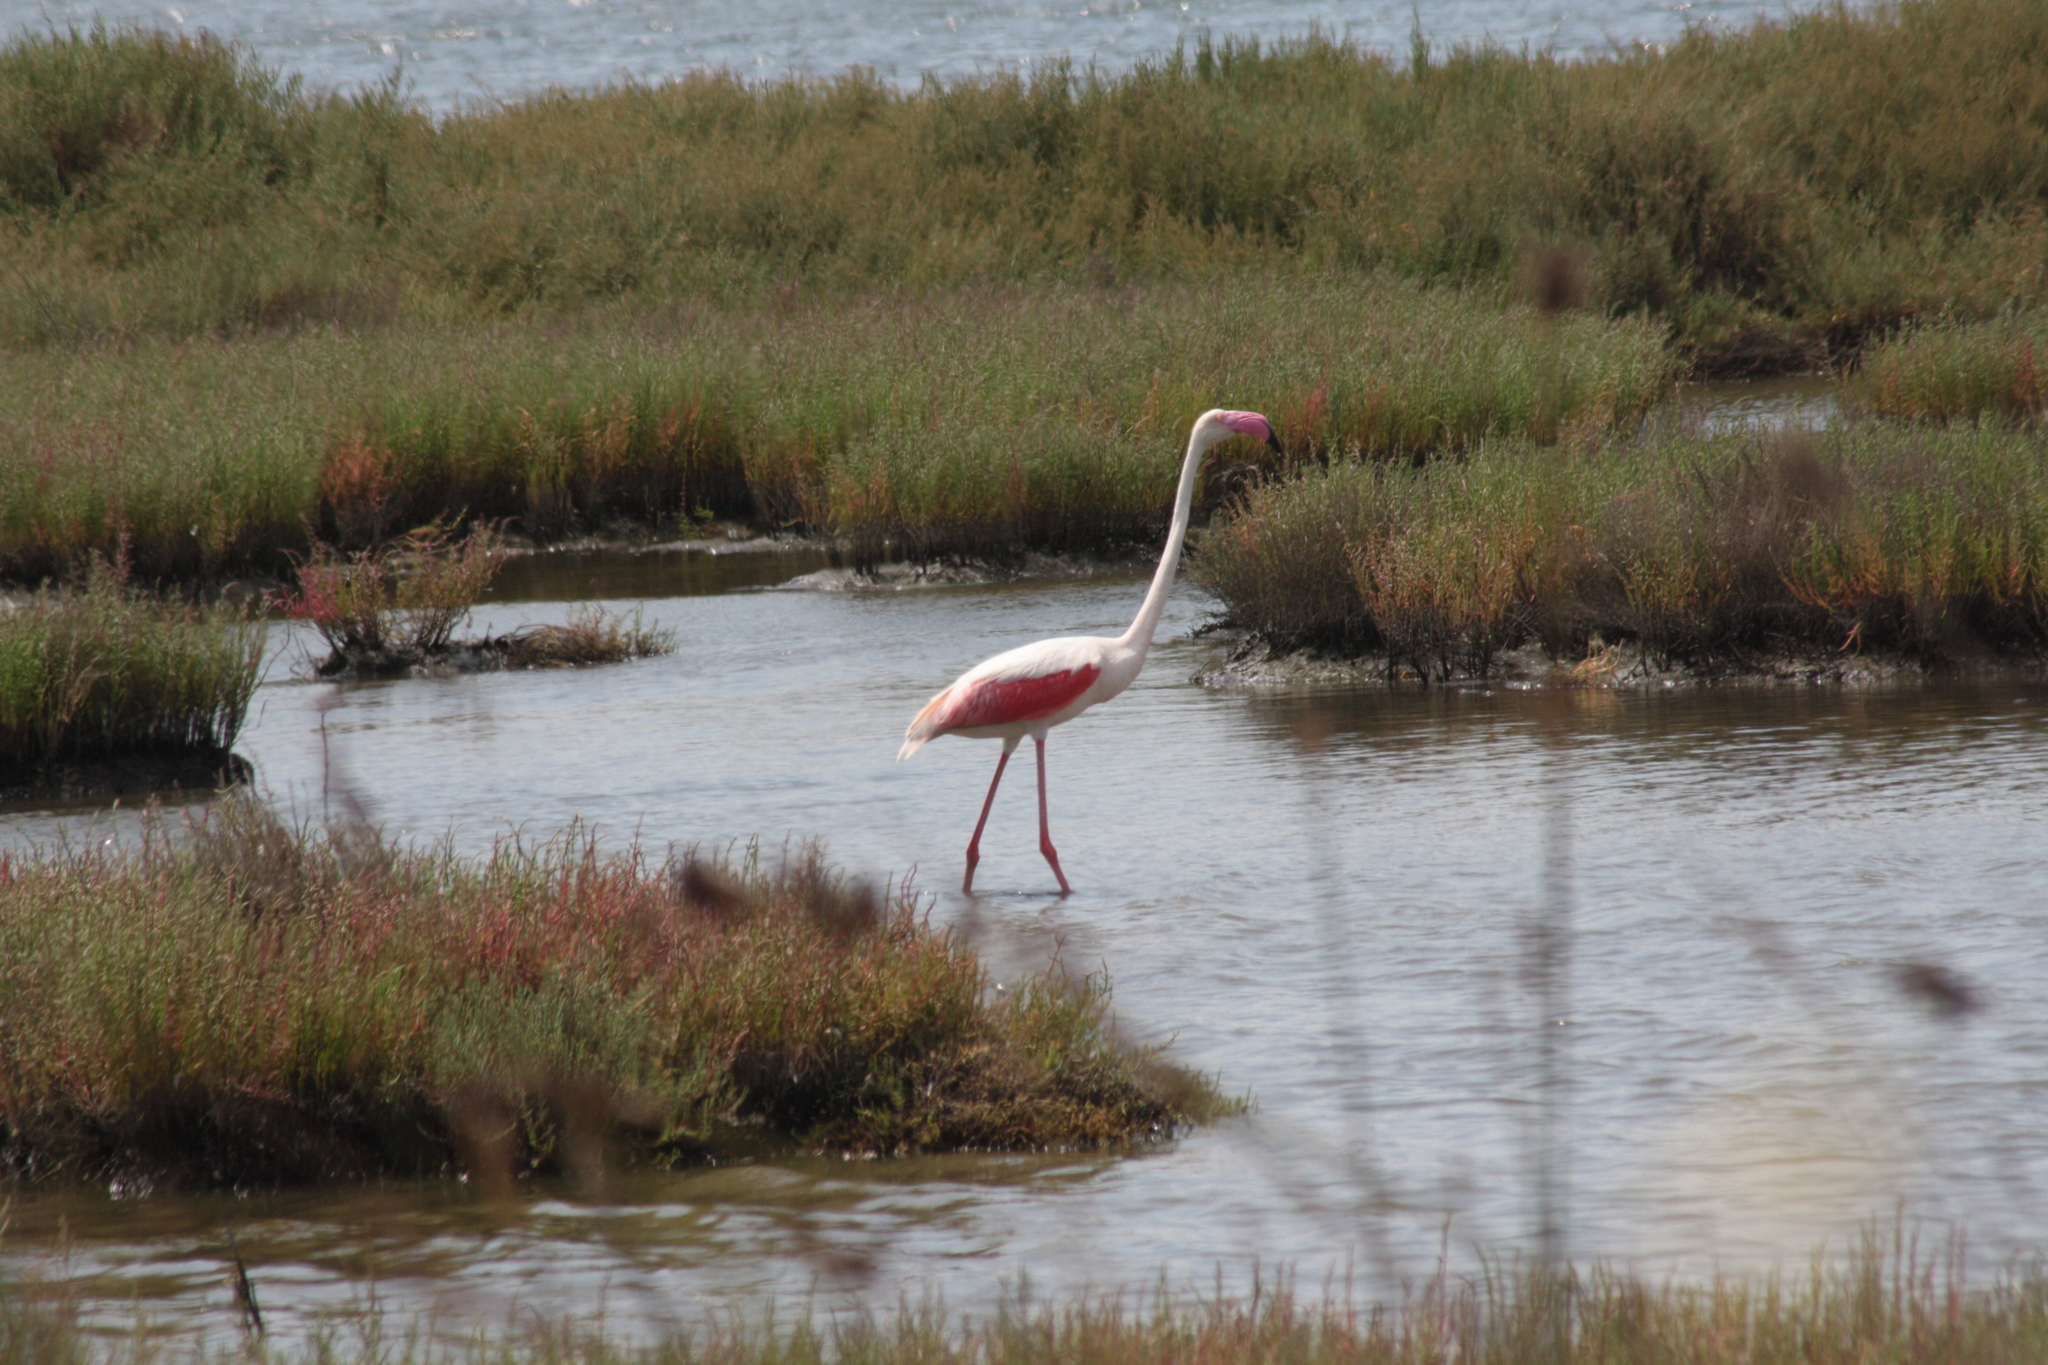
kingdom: Animalia
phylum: Chordata
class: Aves
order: Phoenicopteriformes
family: Phoenicopteridae
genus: Phoenicopterus
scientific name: Phoenicopterus roseus
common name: Greater flamingo
